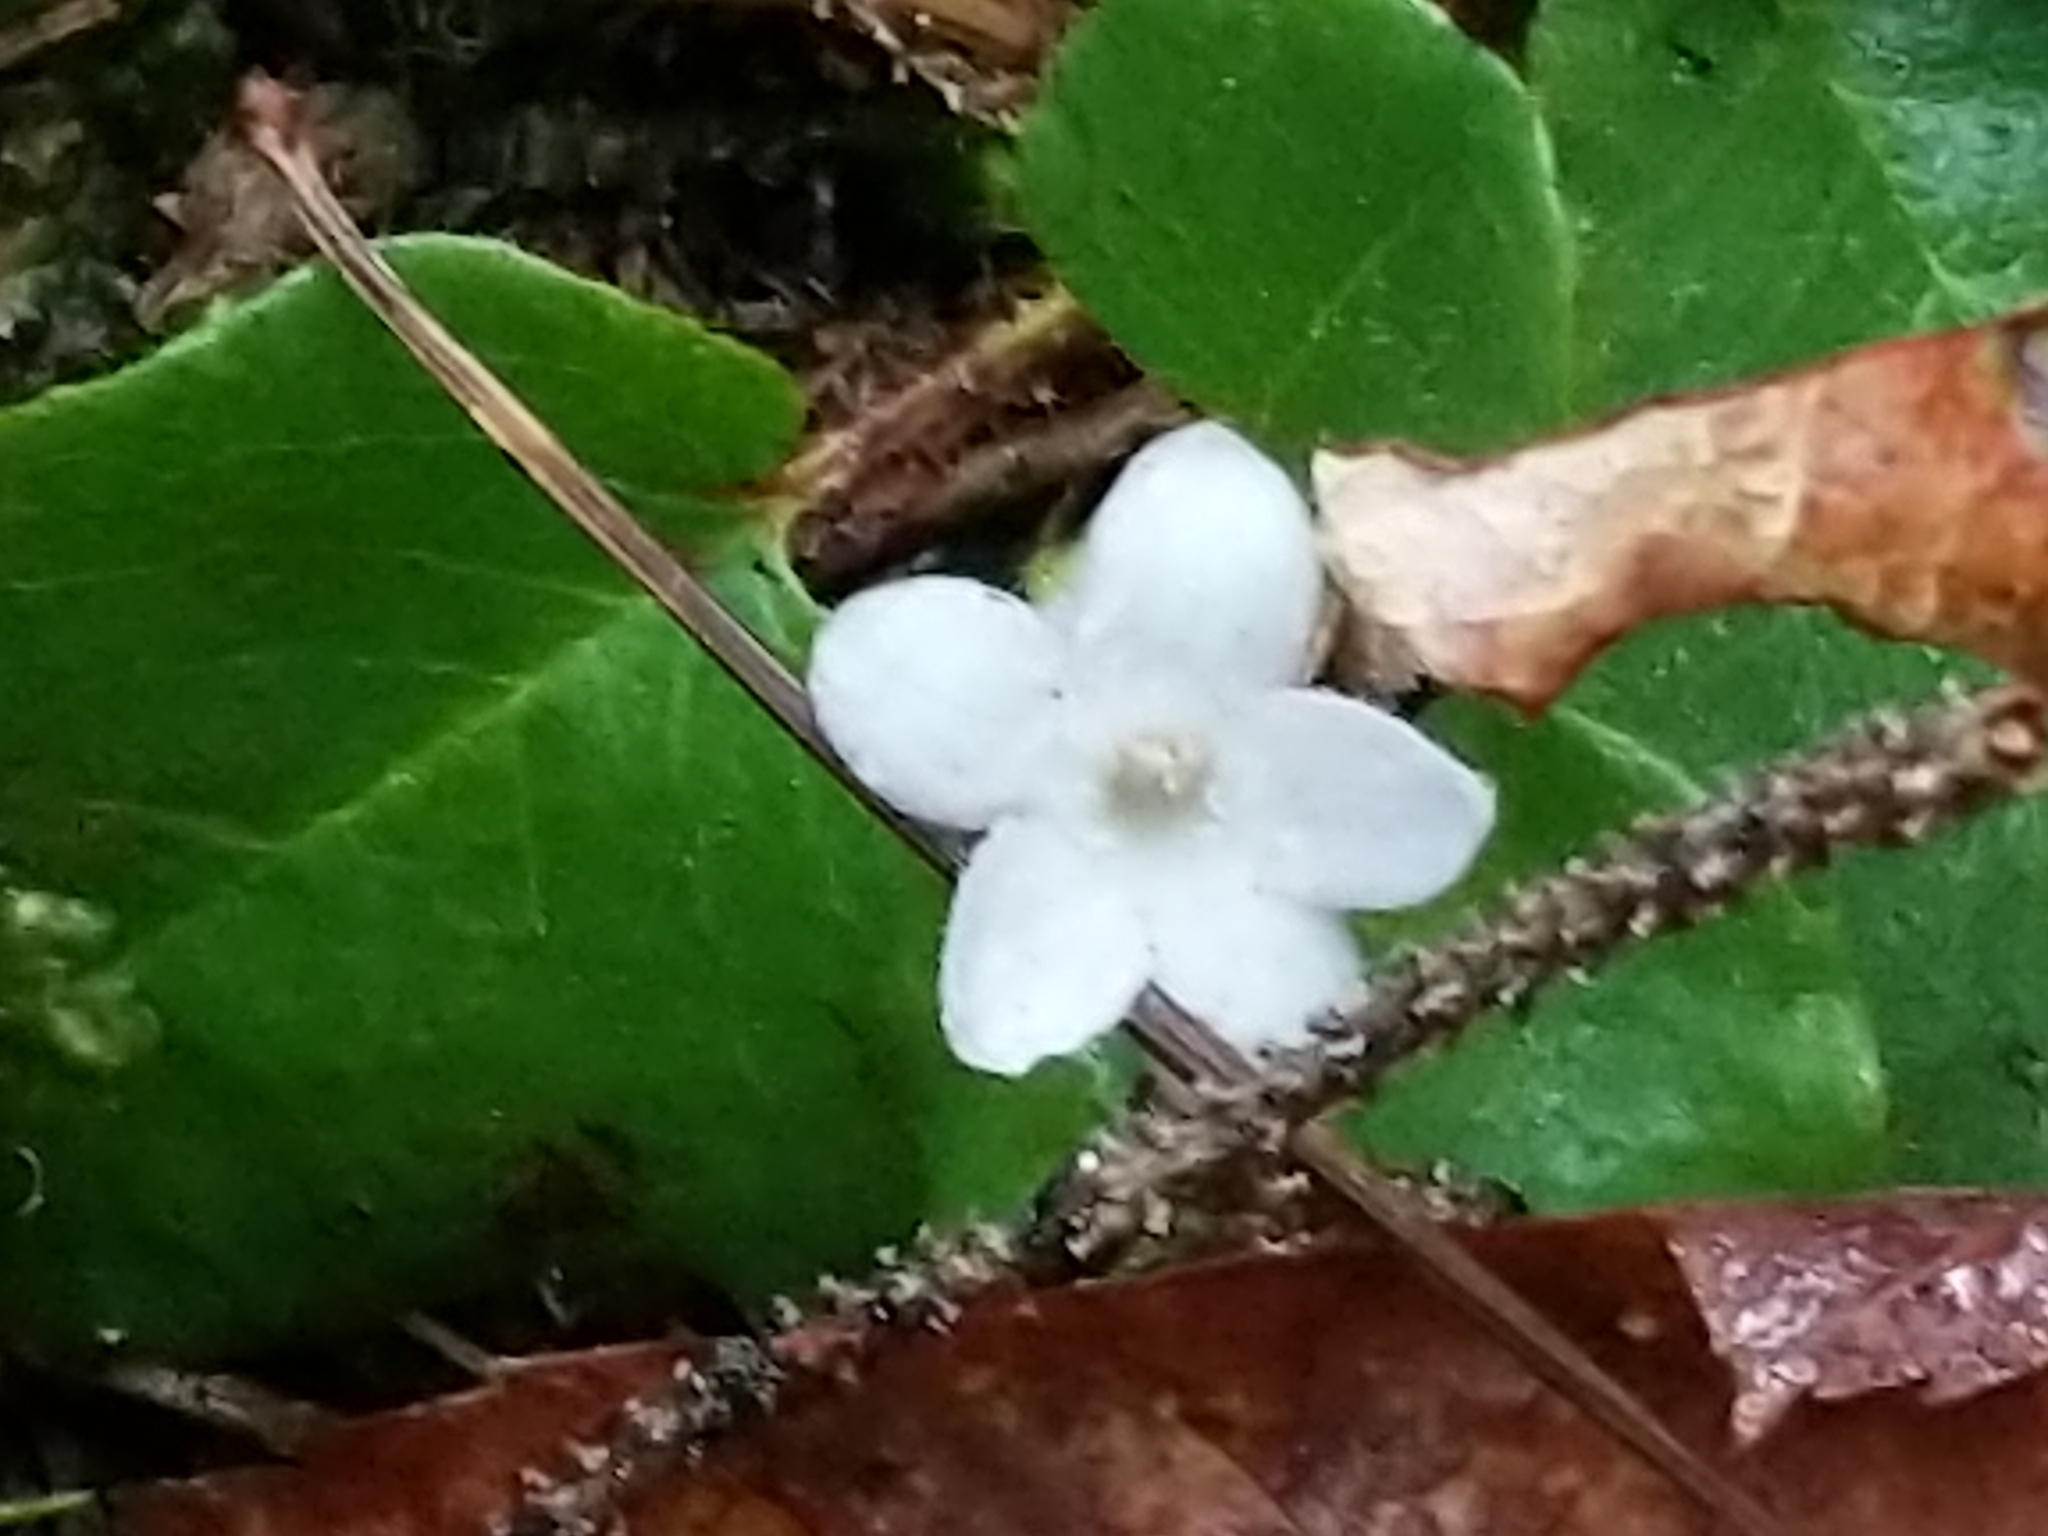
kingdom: Plantae
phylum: Tracheophyta
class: Magnoliopsida
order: Ericales
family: Ericaceae
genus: Epigaea
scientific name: Epigaea repens
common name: Gravelroot
